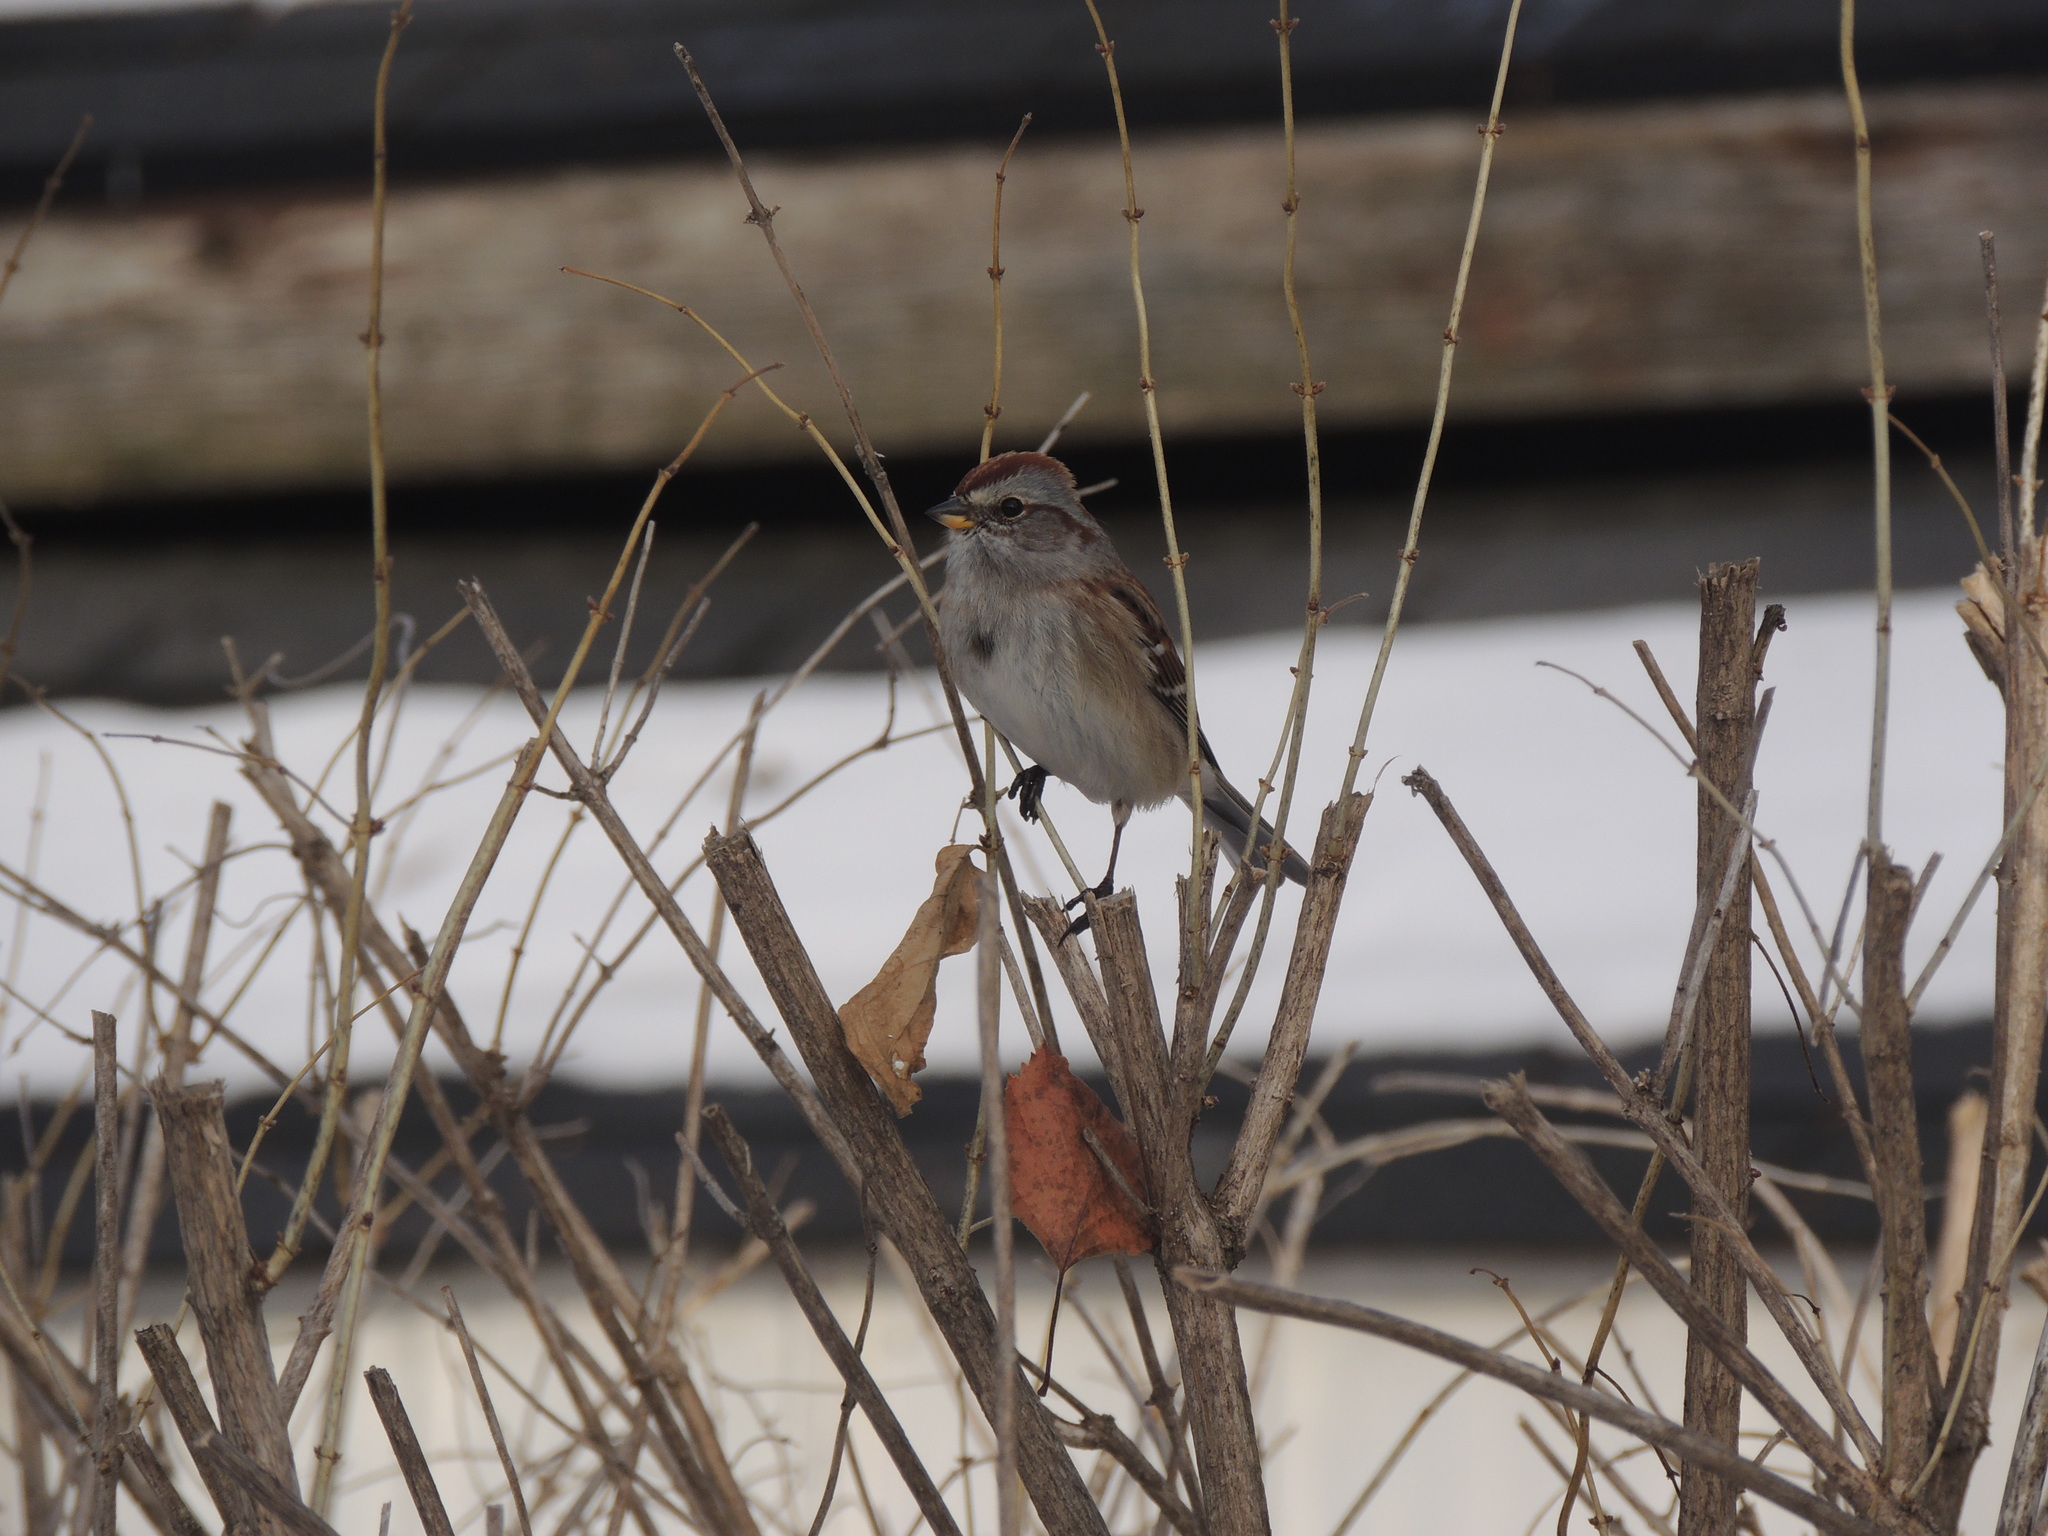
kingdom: Animalia
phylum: Chordata
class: Aves
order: Passeriformes
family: Passerellidae
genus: Spizelloides
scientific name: Spizelloides arborea
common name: American tree sparrow
